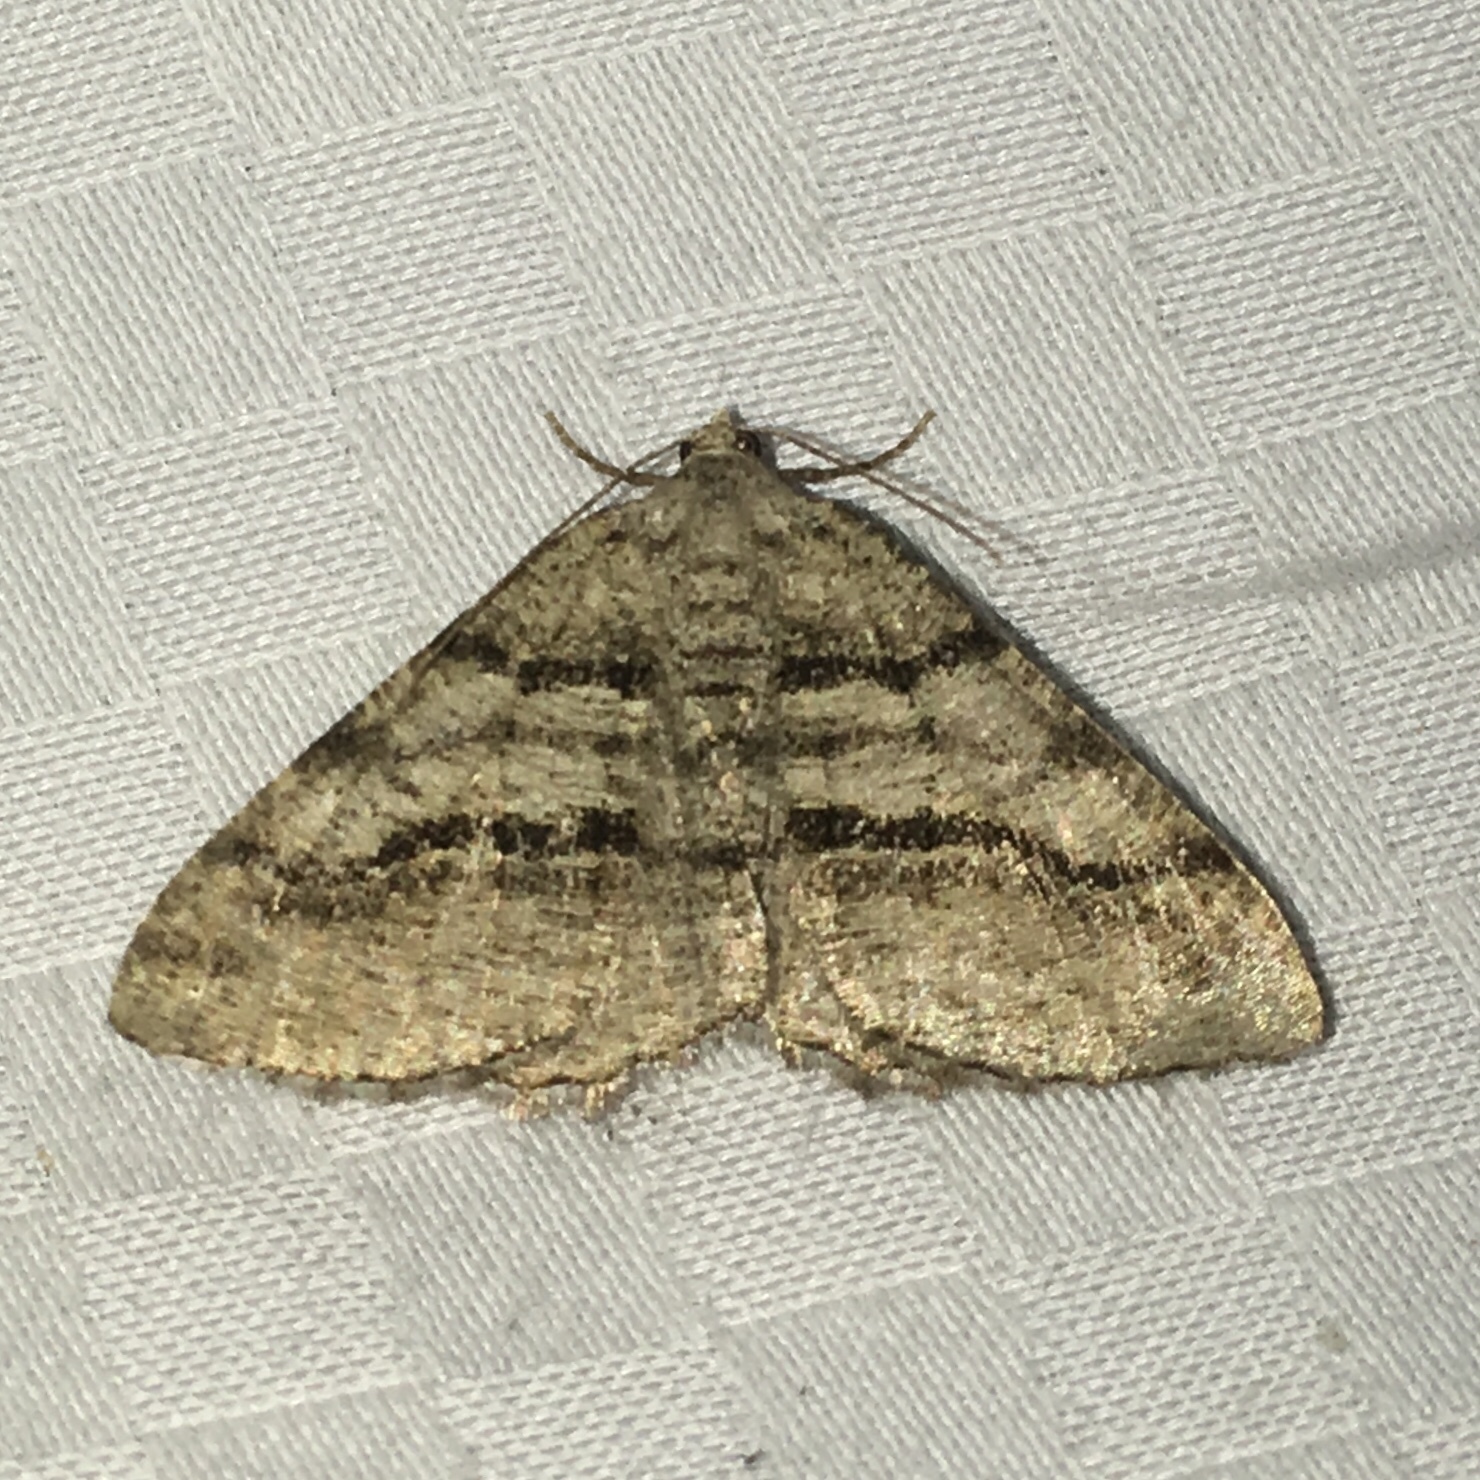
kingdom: Animalia
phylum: Arthropoda
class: Insecta
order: Lepidoptera
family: Geometridae
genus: Digrammia
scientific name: Digrammia continuata
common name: Curve-lined angle
